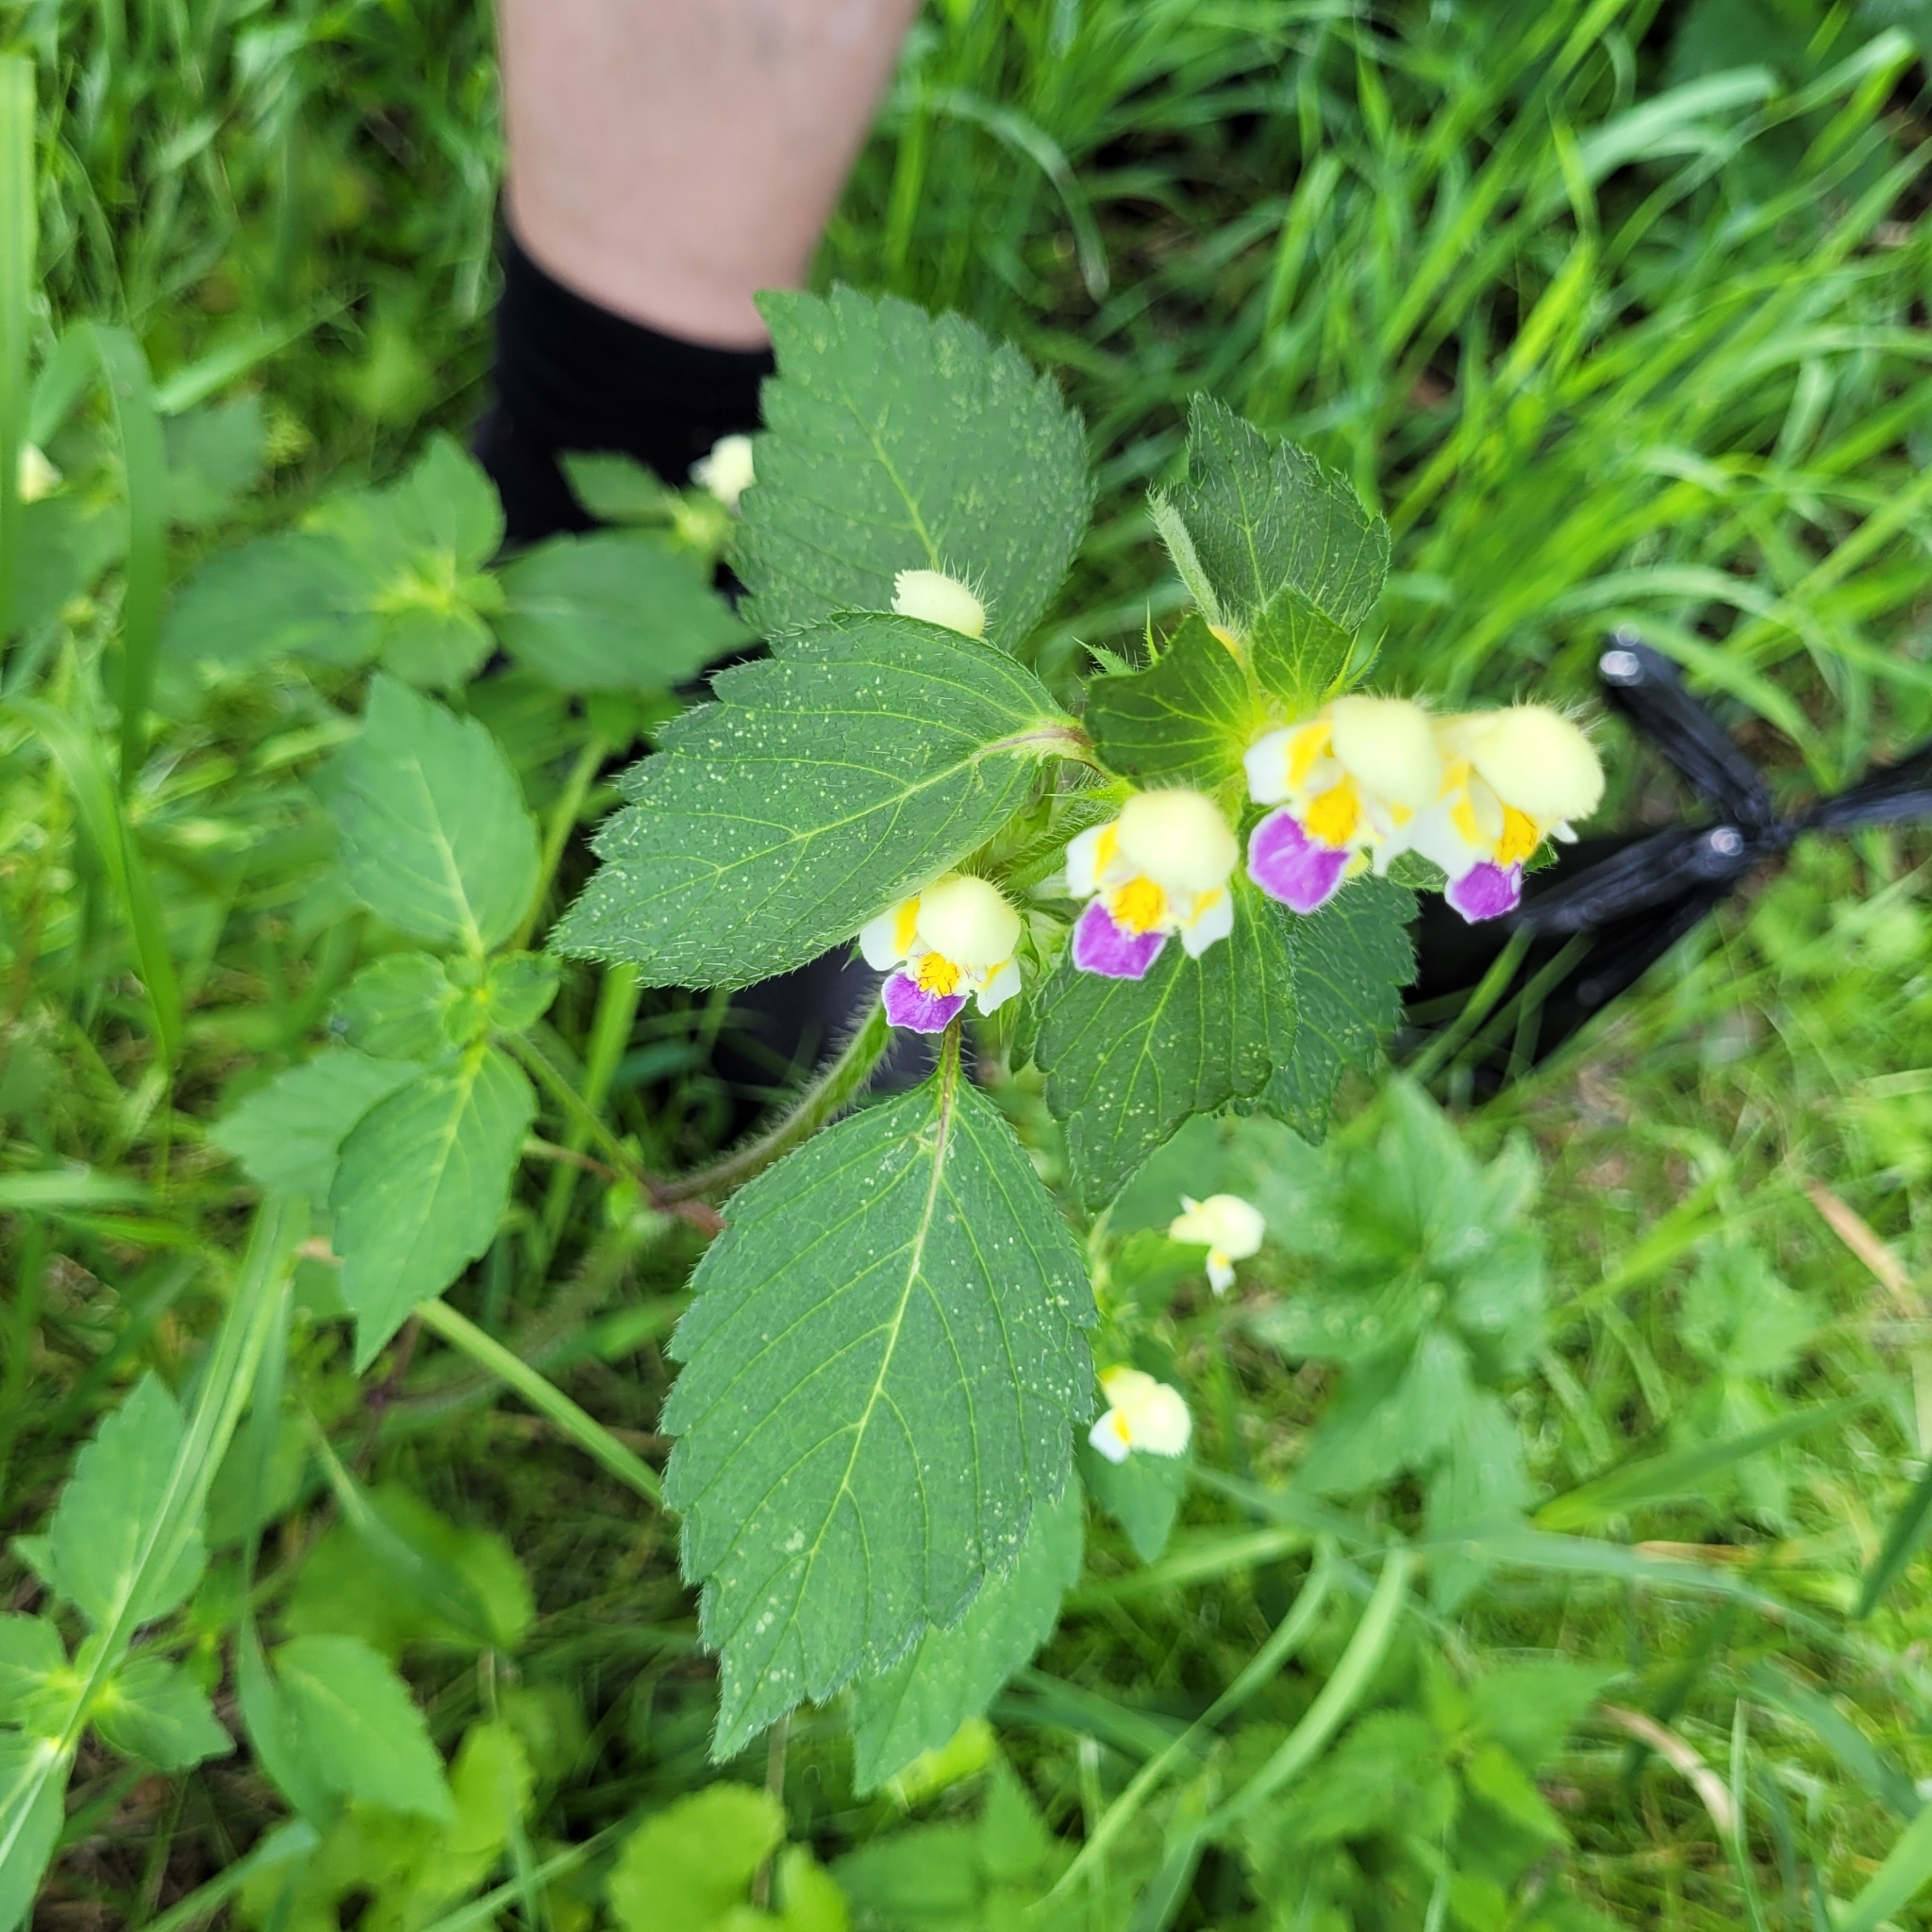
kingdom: Plantae
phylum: Tracheophyta
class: Magnoliopsida
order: Lamiales
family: Lamiaceae
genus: Galeopsis
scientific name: Galeopsis speciosa
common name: Large-flowered hemp-nettle
